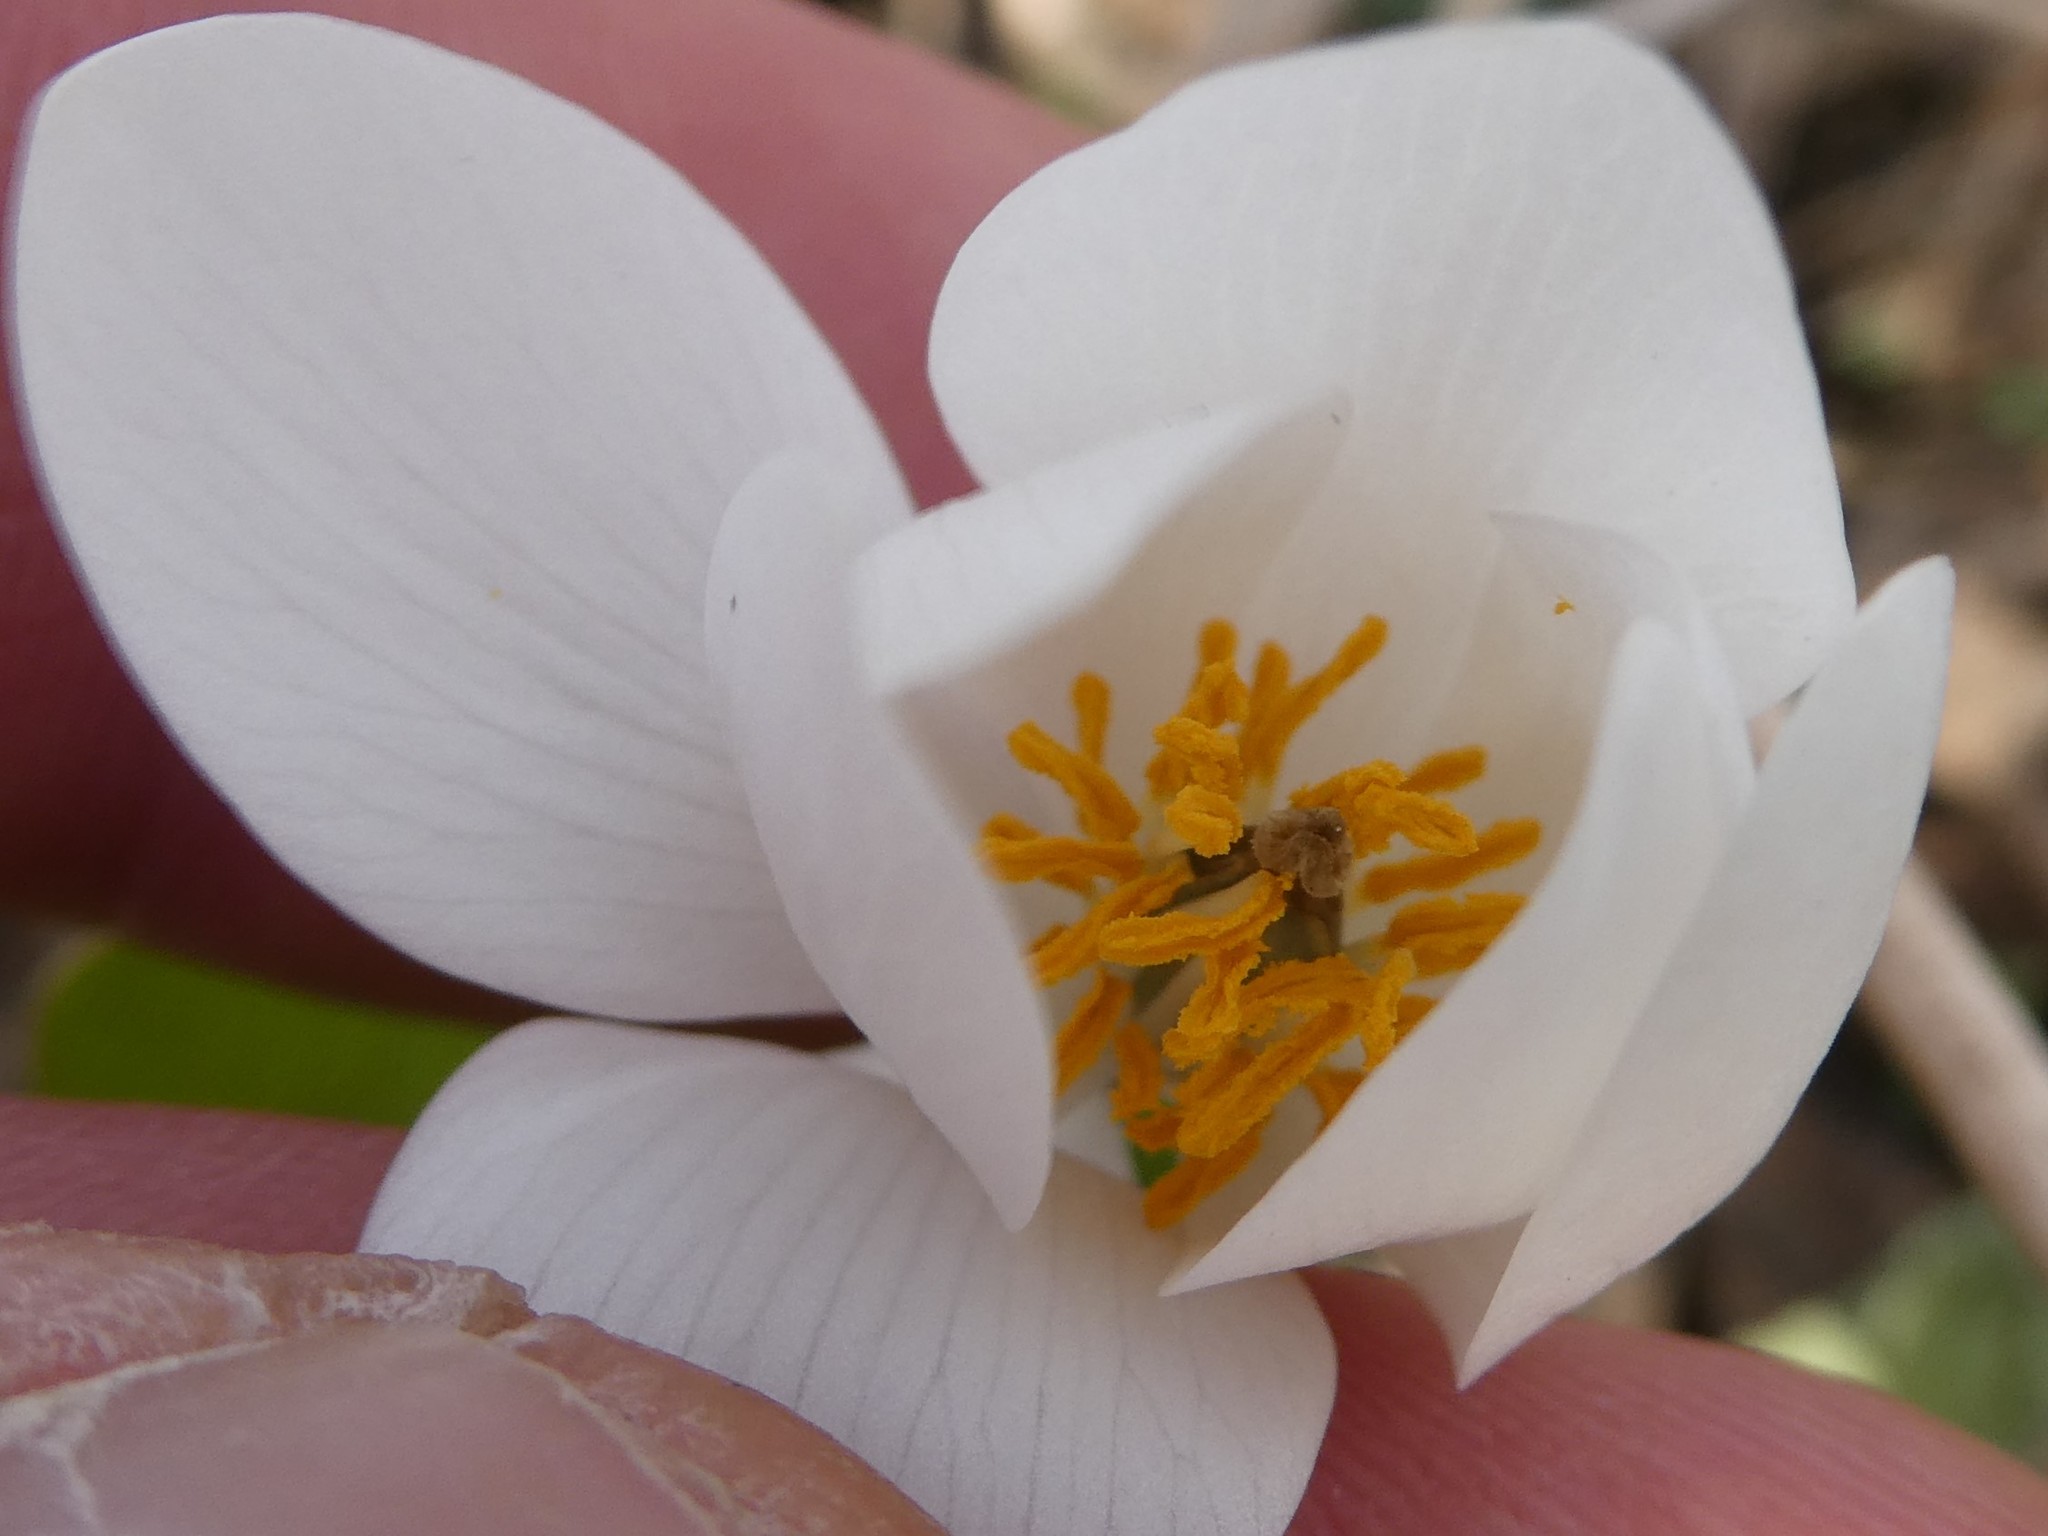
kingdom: Plantae
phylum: Tracheophyta
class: Magnoliopsida
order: Ranunculales
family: Papaveraceae
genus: Sanguinaria
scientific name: Sanguinaria canadensis
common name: Bloodroot
